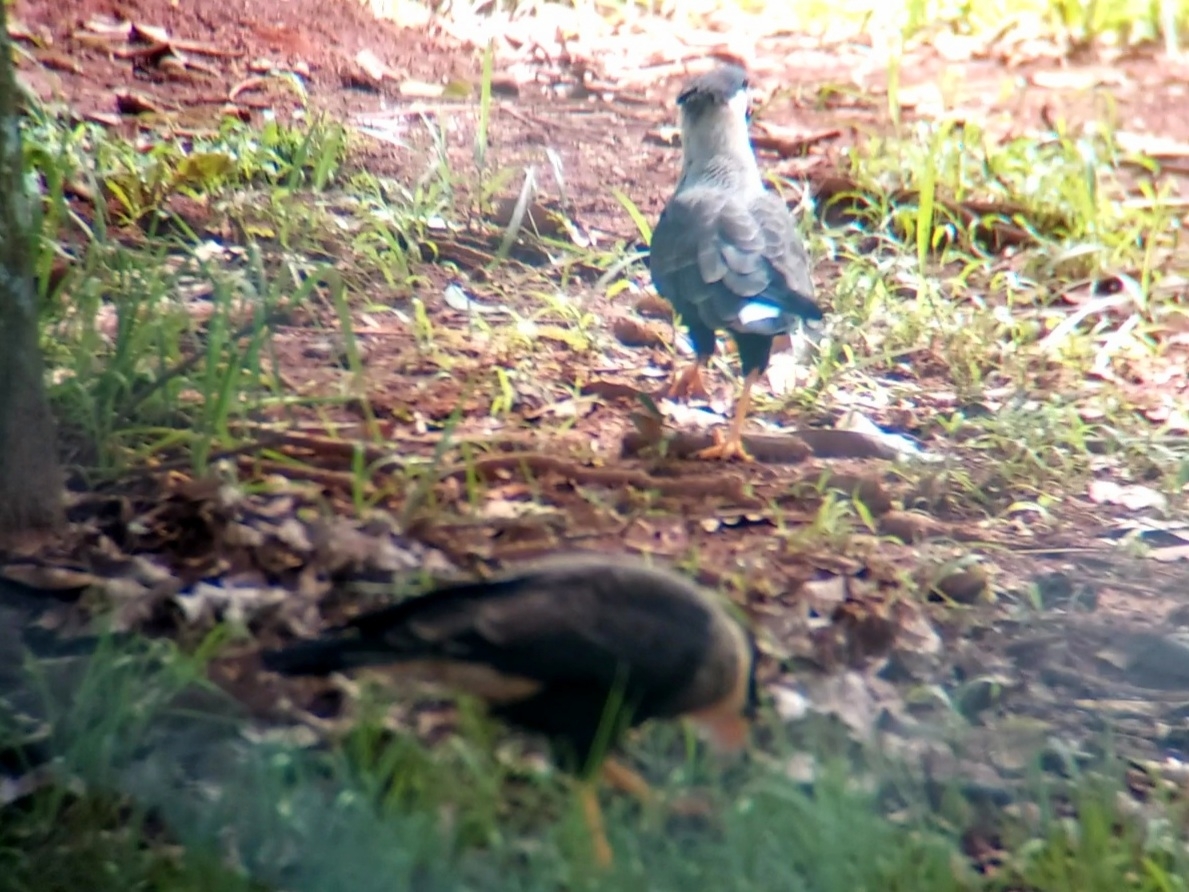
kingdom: Animalia
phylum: Chordata
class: Aves
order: Falconiformes
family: Falconidae
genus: Caracara
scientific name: Caracara plancus
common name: Southern caracara
